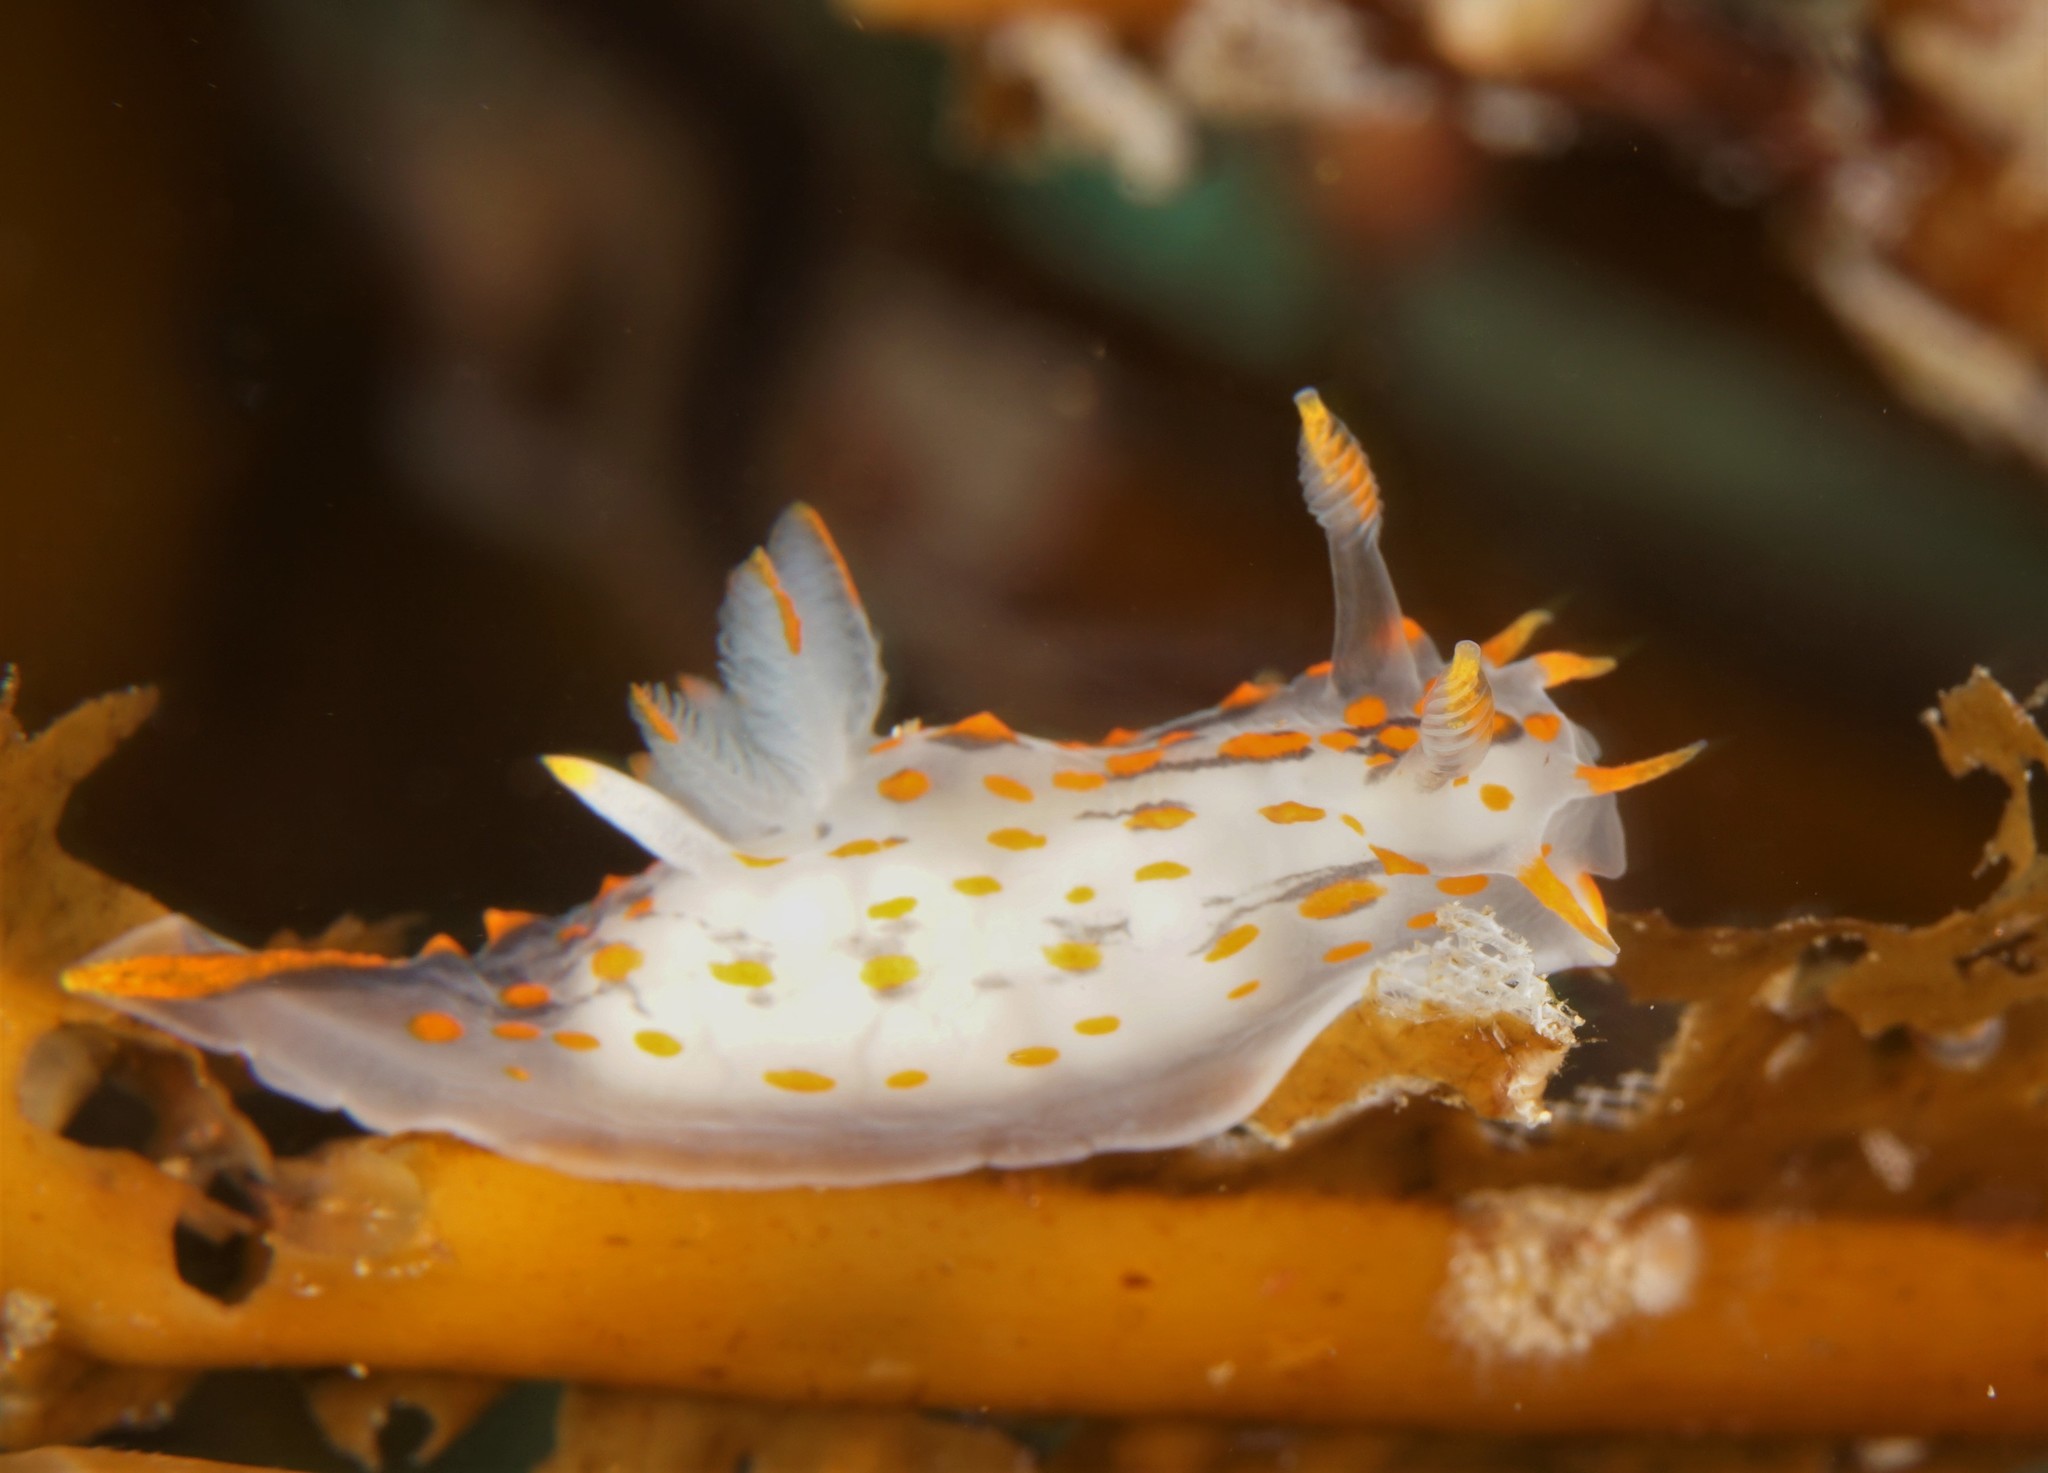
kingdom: Animalia
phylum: Mollusca
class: Gastropoda
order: Nudibranchia
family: Polyceridae
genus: Polycera
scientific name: Polycera quadrilineata
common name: Four-striped polycera
